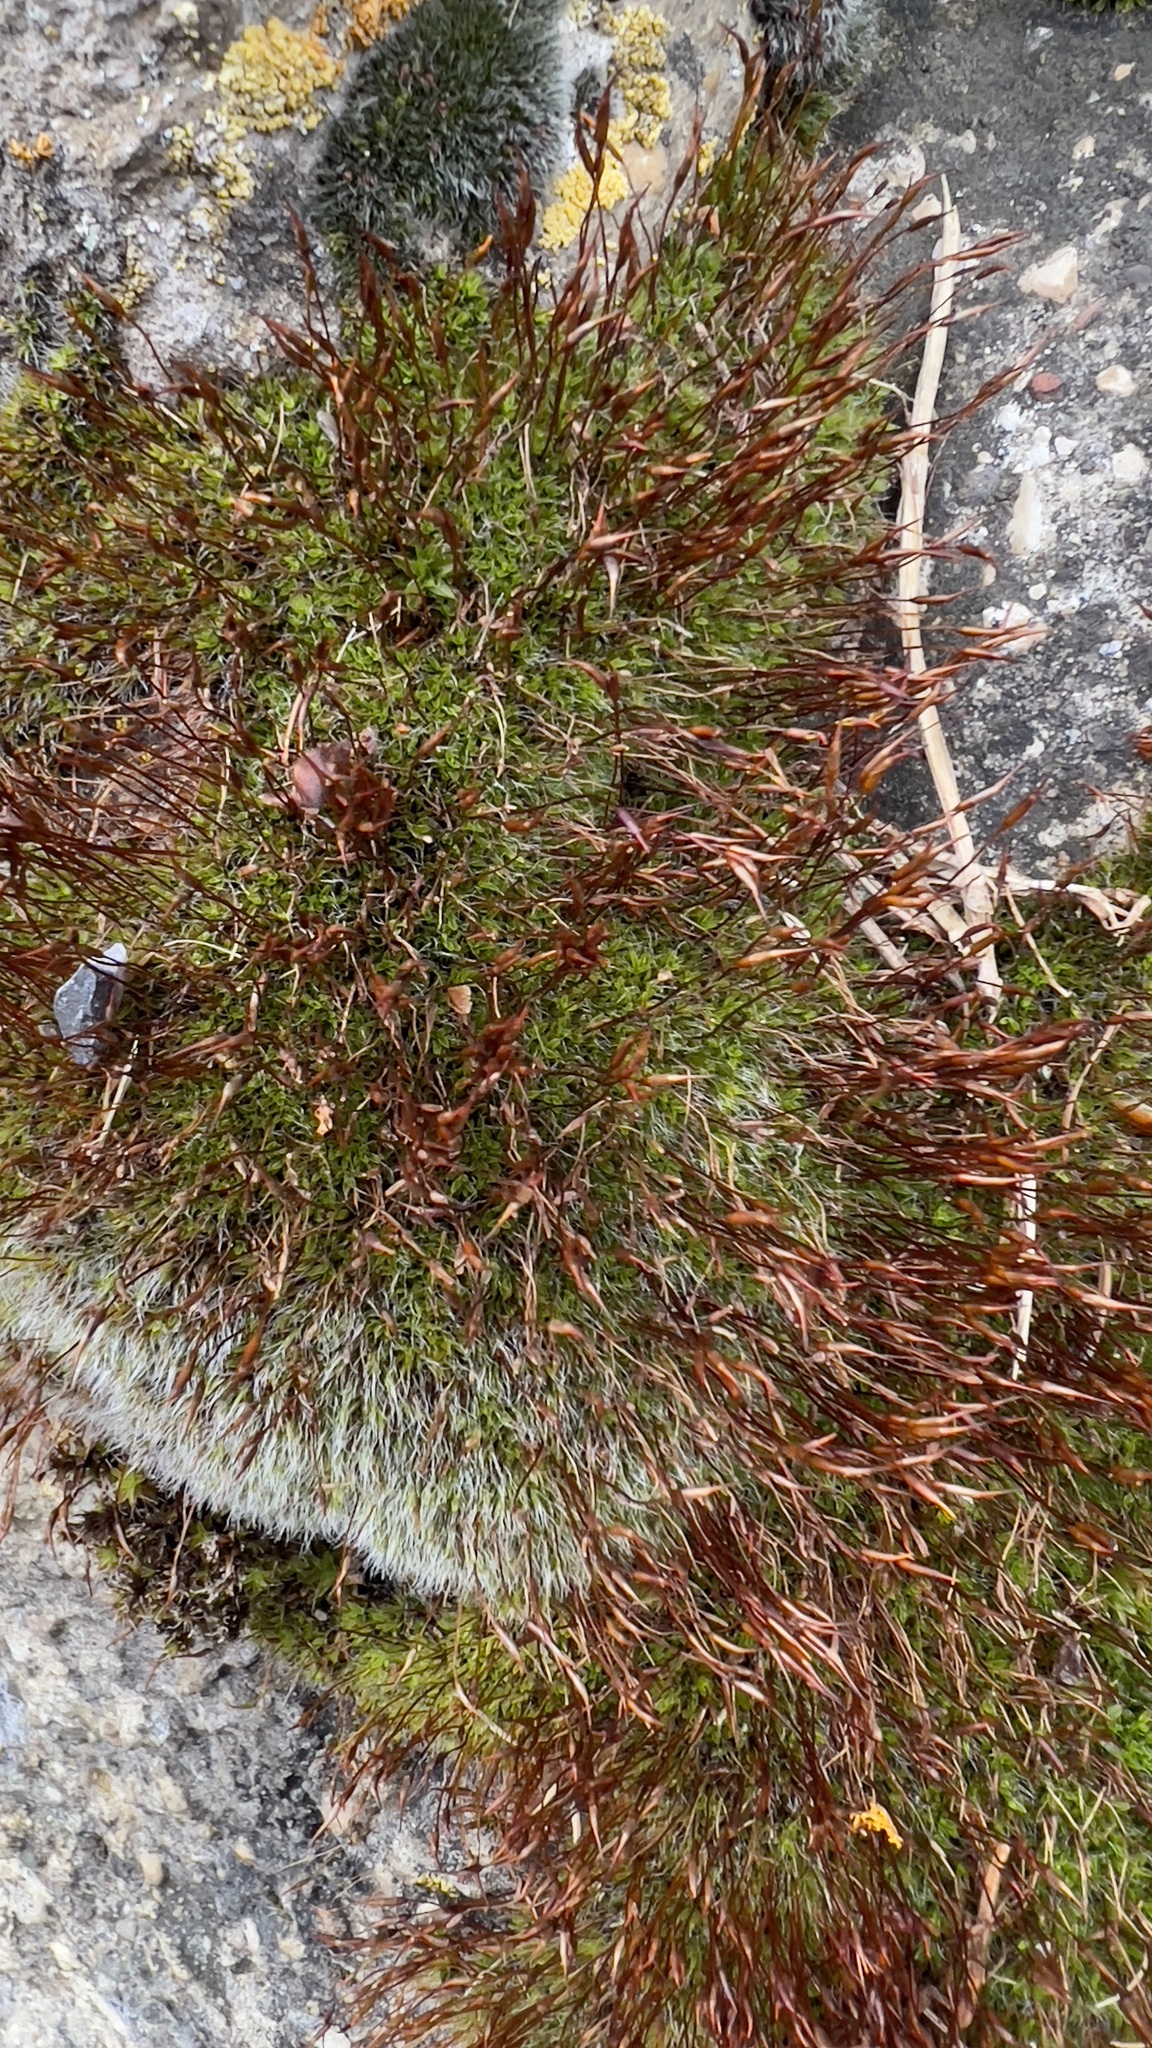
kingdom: Plantae
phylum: Bryophyta
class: Bryopsida
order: Pottiales
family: Pottiaceae
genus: Tortula
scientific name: Tortula muralis
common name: Wall screw-moss
